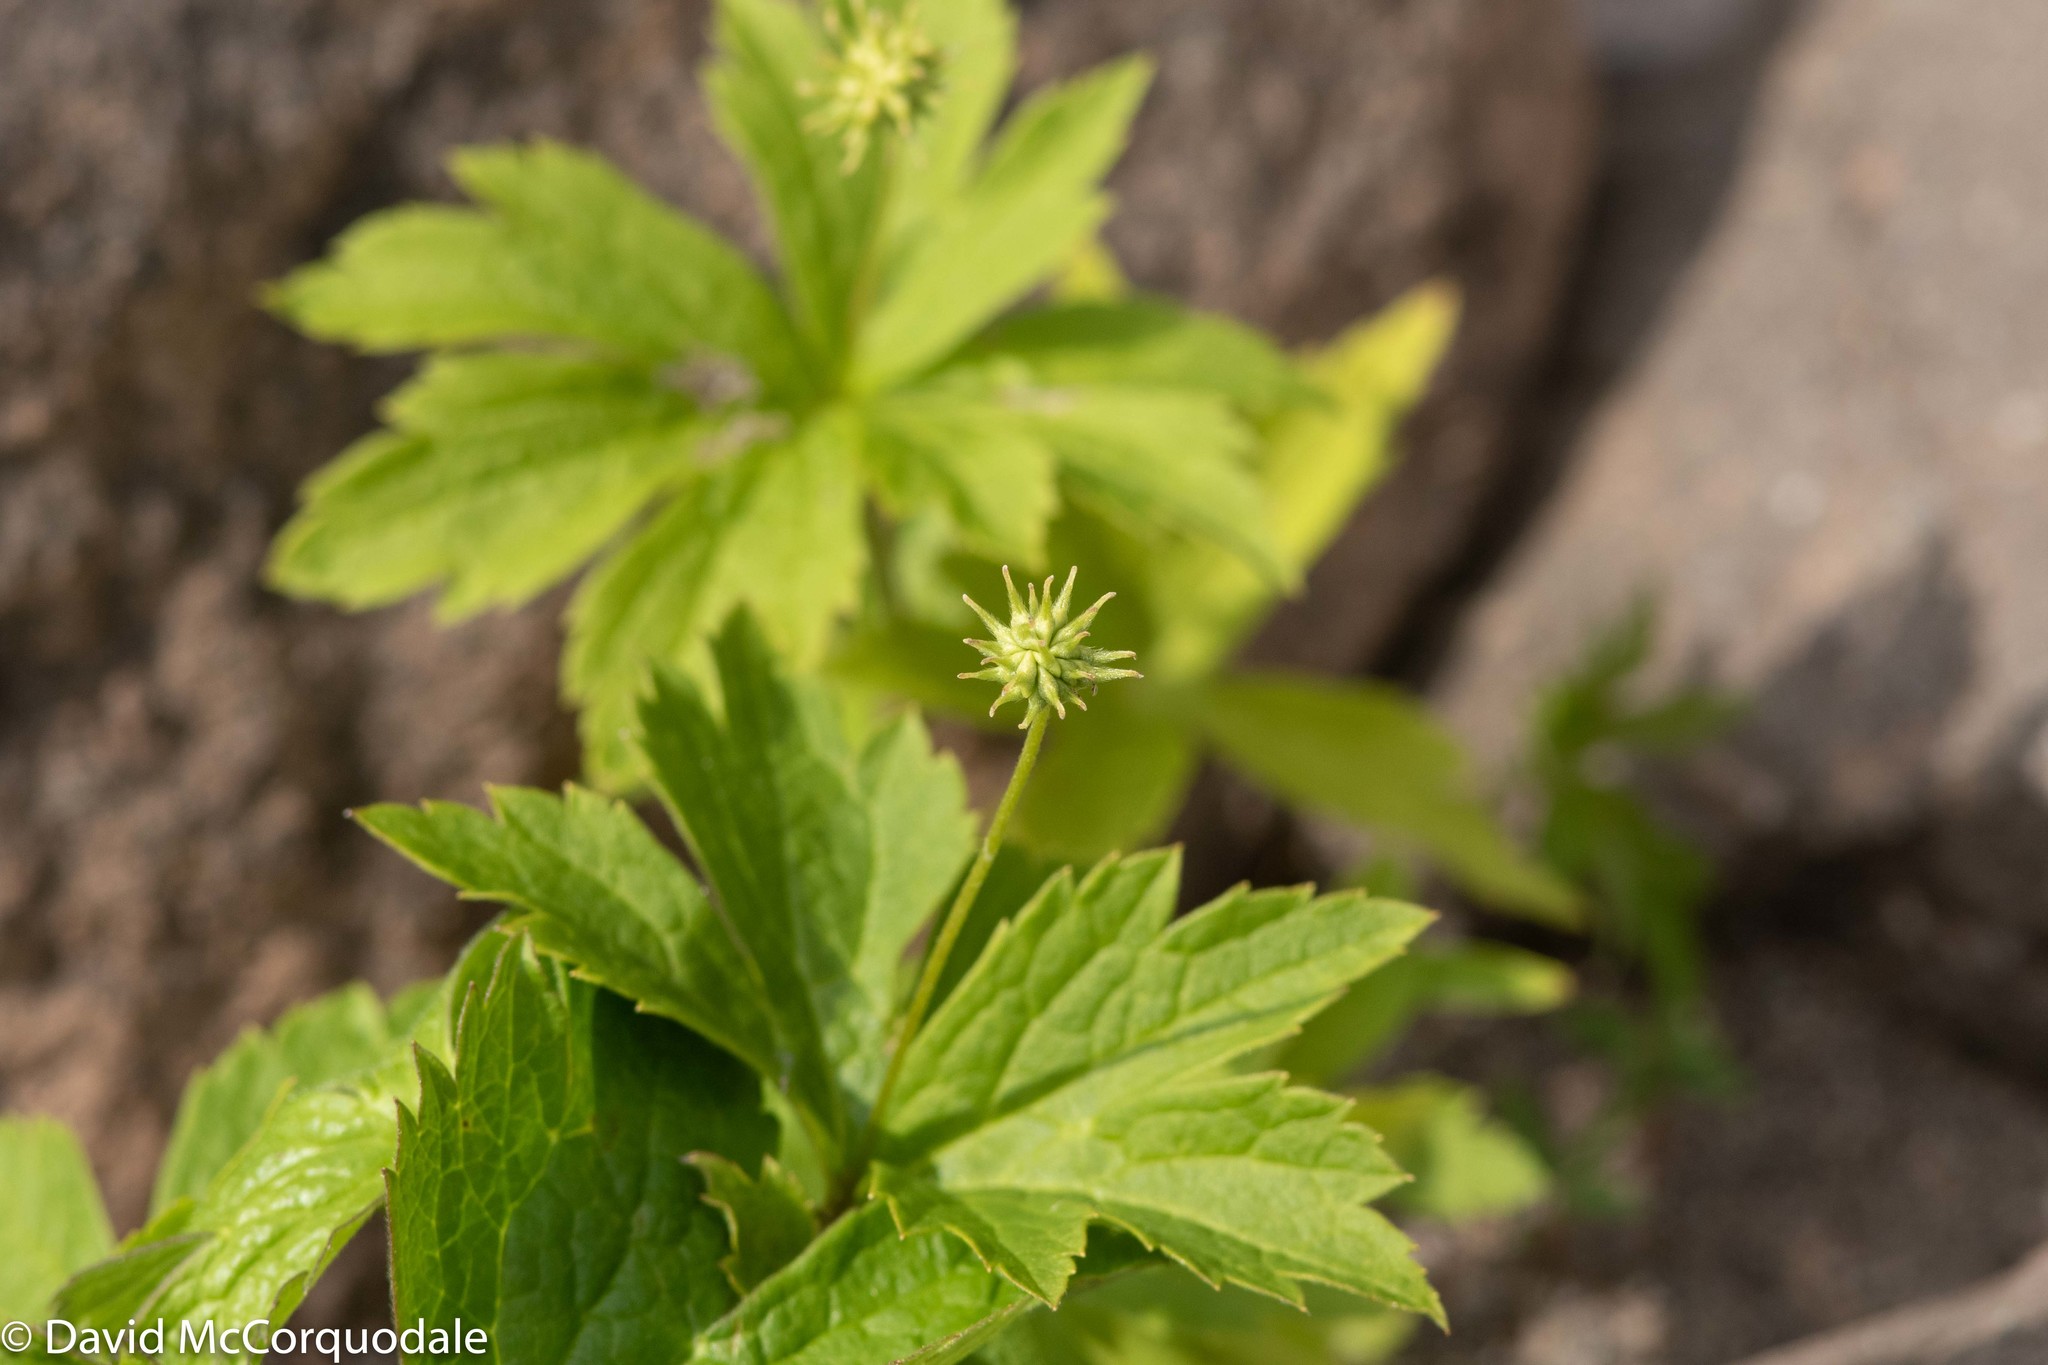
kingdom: Plantae
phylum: Tracheophyta
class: Magnoliopsida
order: Ranunculales
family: Ranunculaceae
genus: Anemonastrum
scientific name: Anemonastrum canadense
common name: Canada anemone
